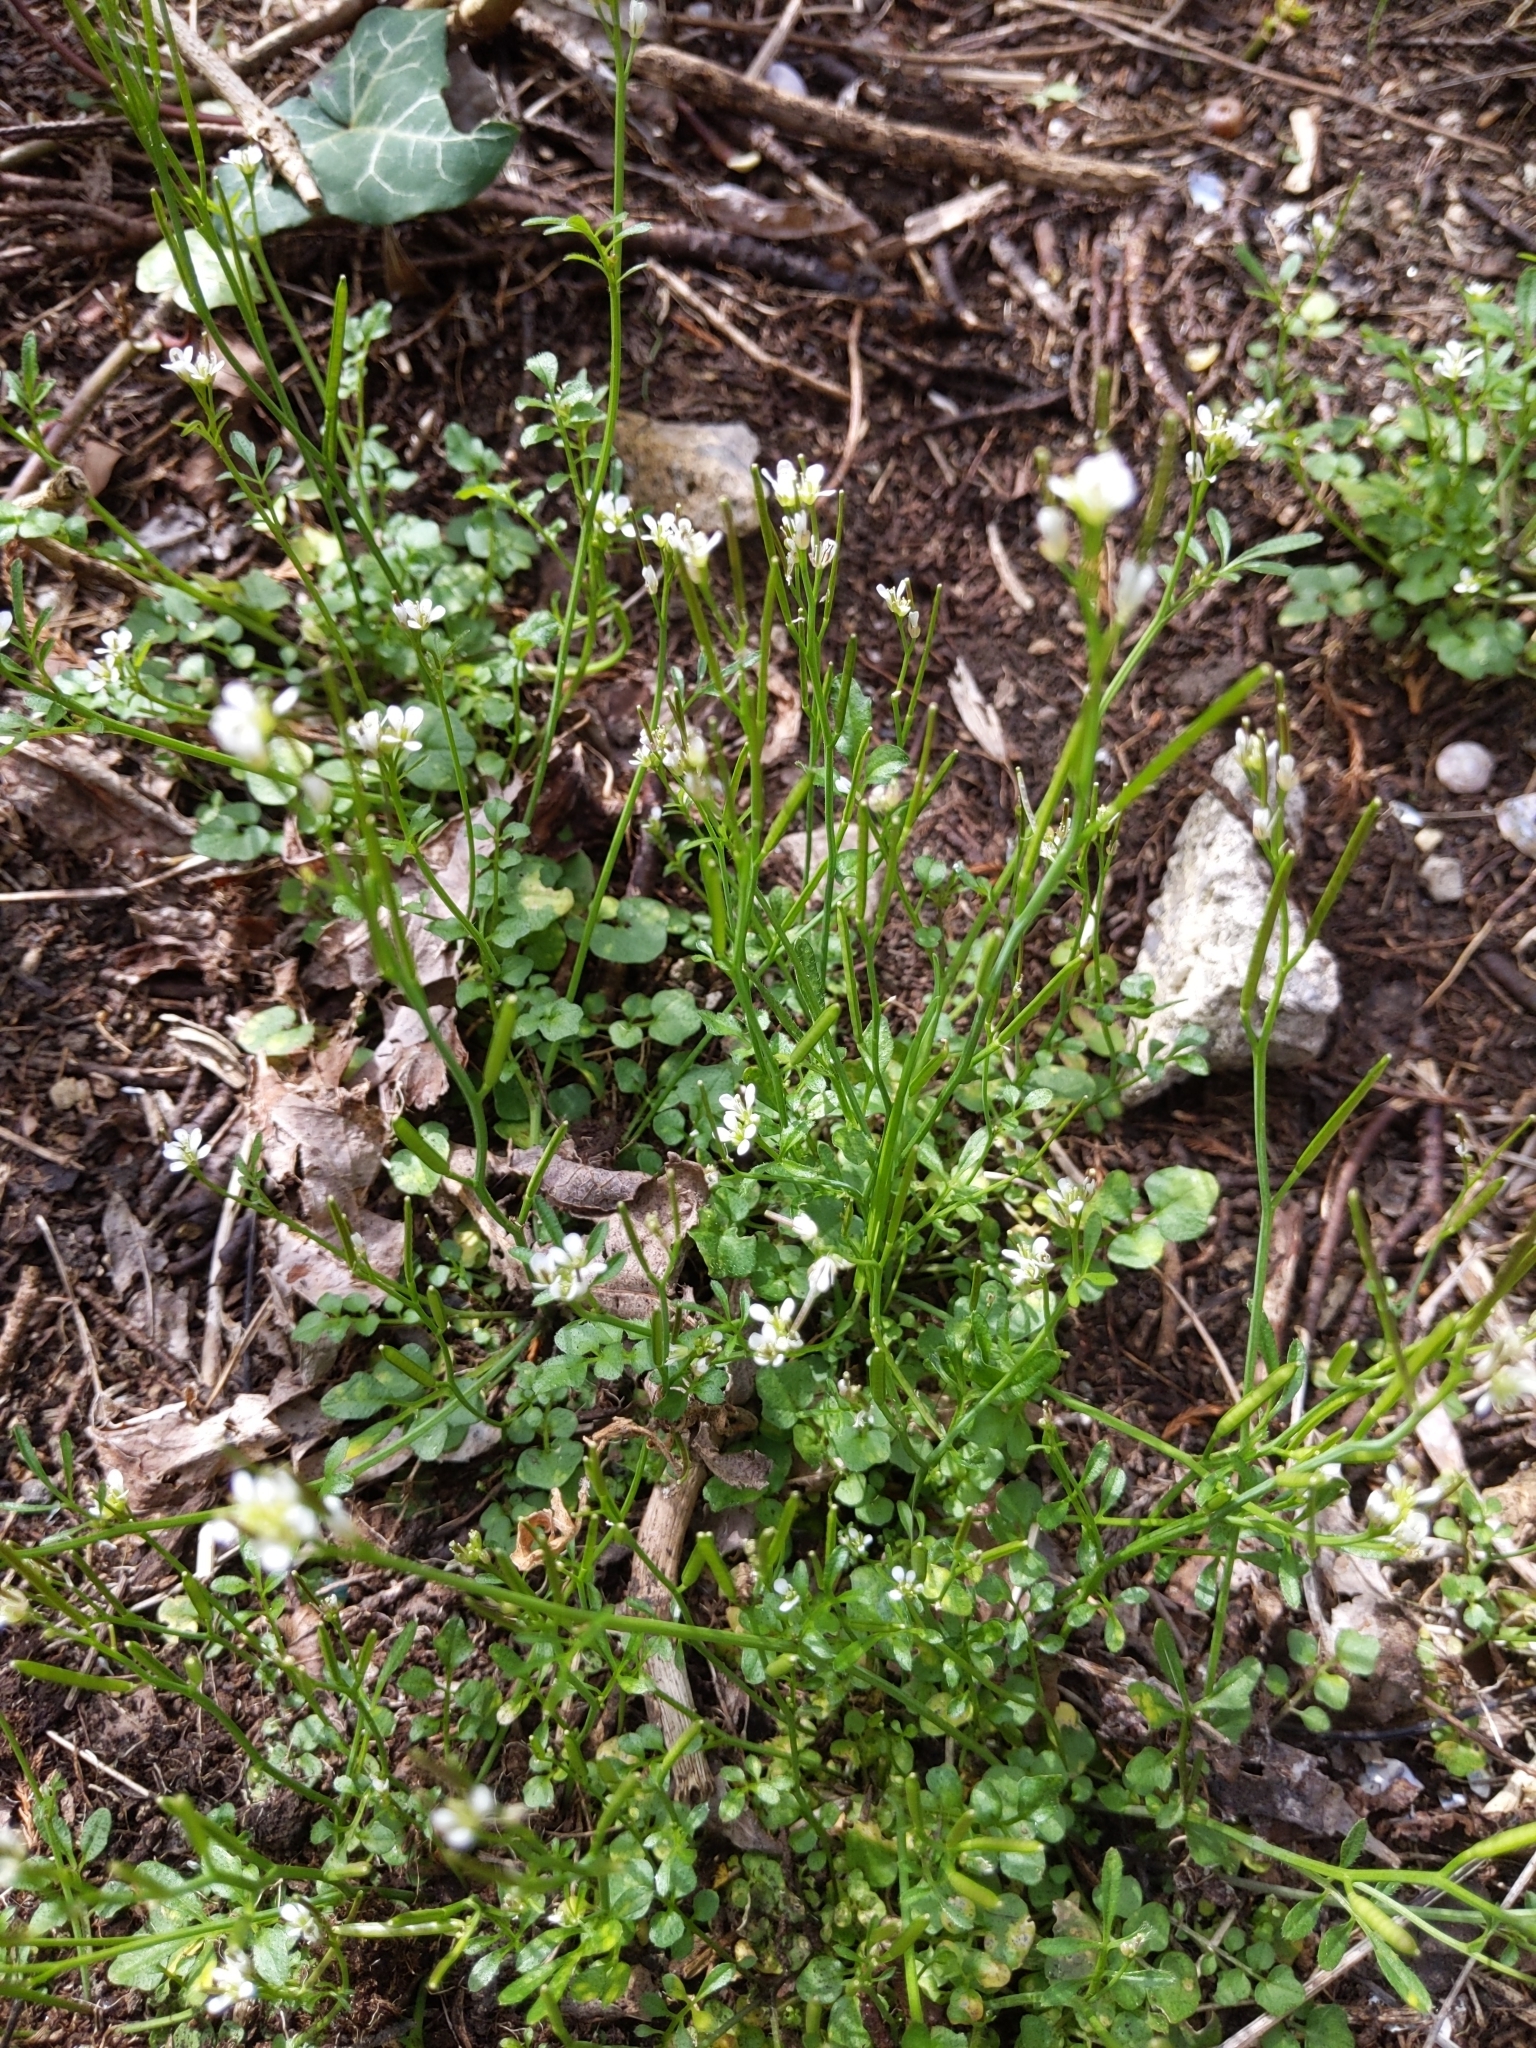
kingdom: Plantae
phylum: Tracheophyta
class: Magnoliopsida
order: Brassicales
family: Brassicaceae
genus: Cardamine
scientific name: Cardamine hirsuta
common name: Hairy bittercress
